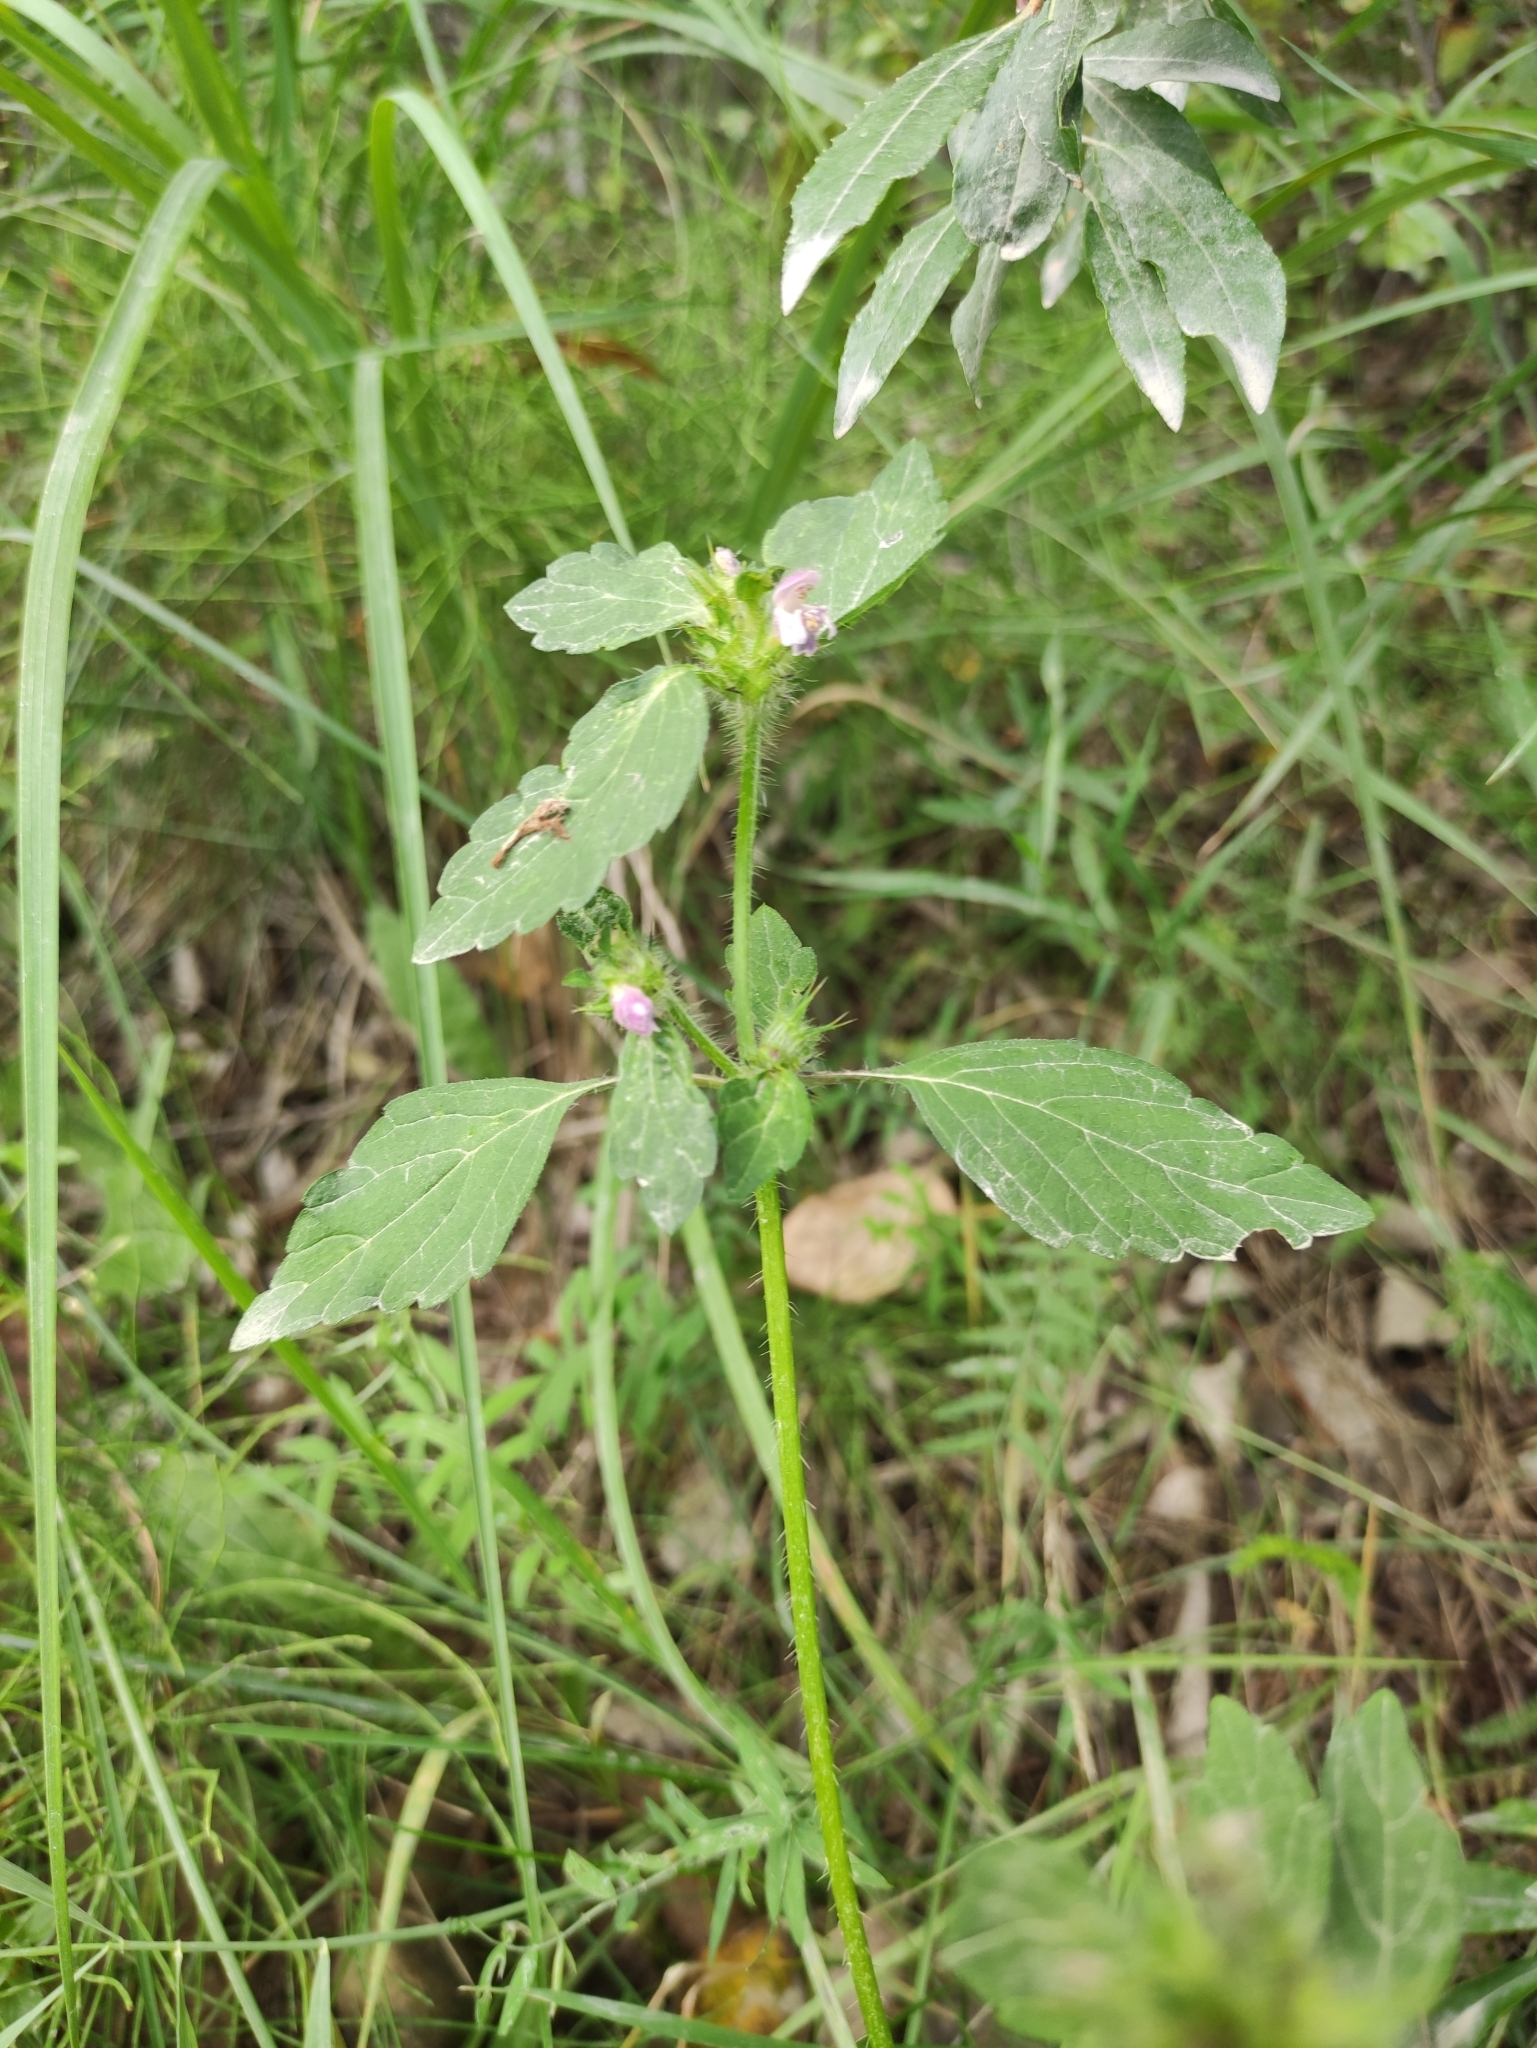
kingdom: Plantae
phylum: Tracheophyta
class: Magnoliopsida
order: Lamiales
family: Lamiaceae
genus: Galeopsis
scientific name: Galeopsis bifida
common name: Bifid hemp-nettle
